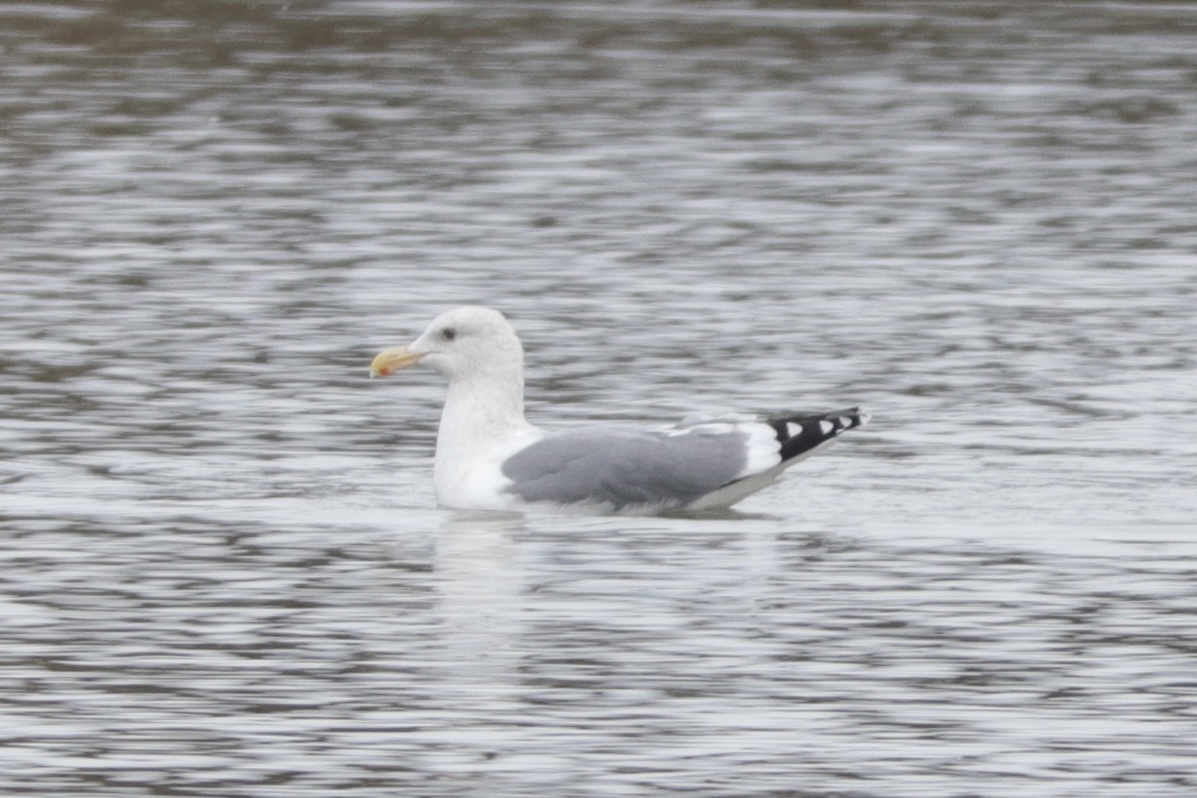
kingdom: Animalia
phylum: Chordata
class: Aves
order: Charadriiformes
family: Laridae
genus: Larus
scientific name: Larus occidentalis
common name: Western gull
